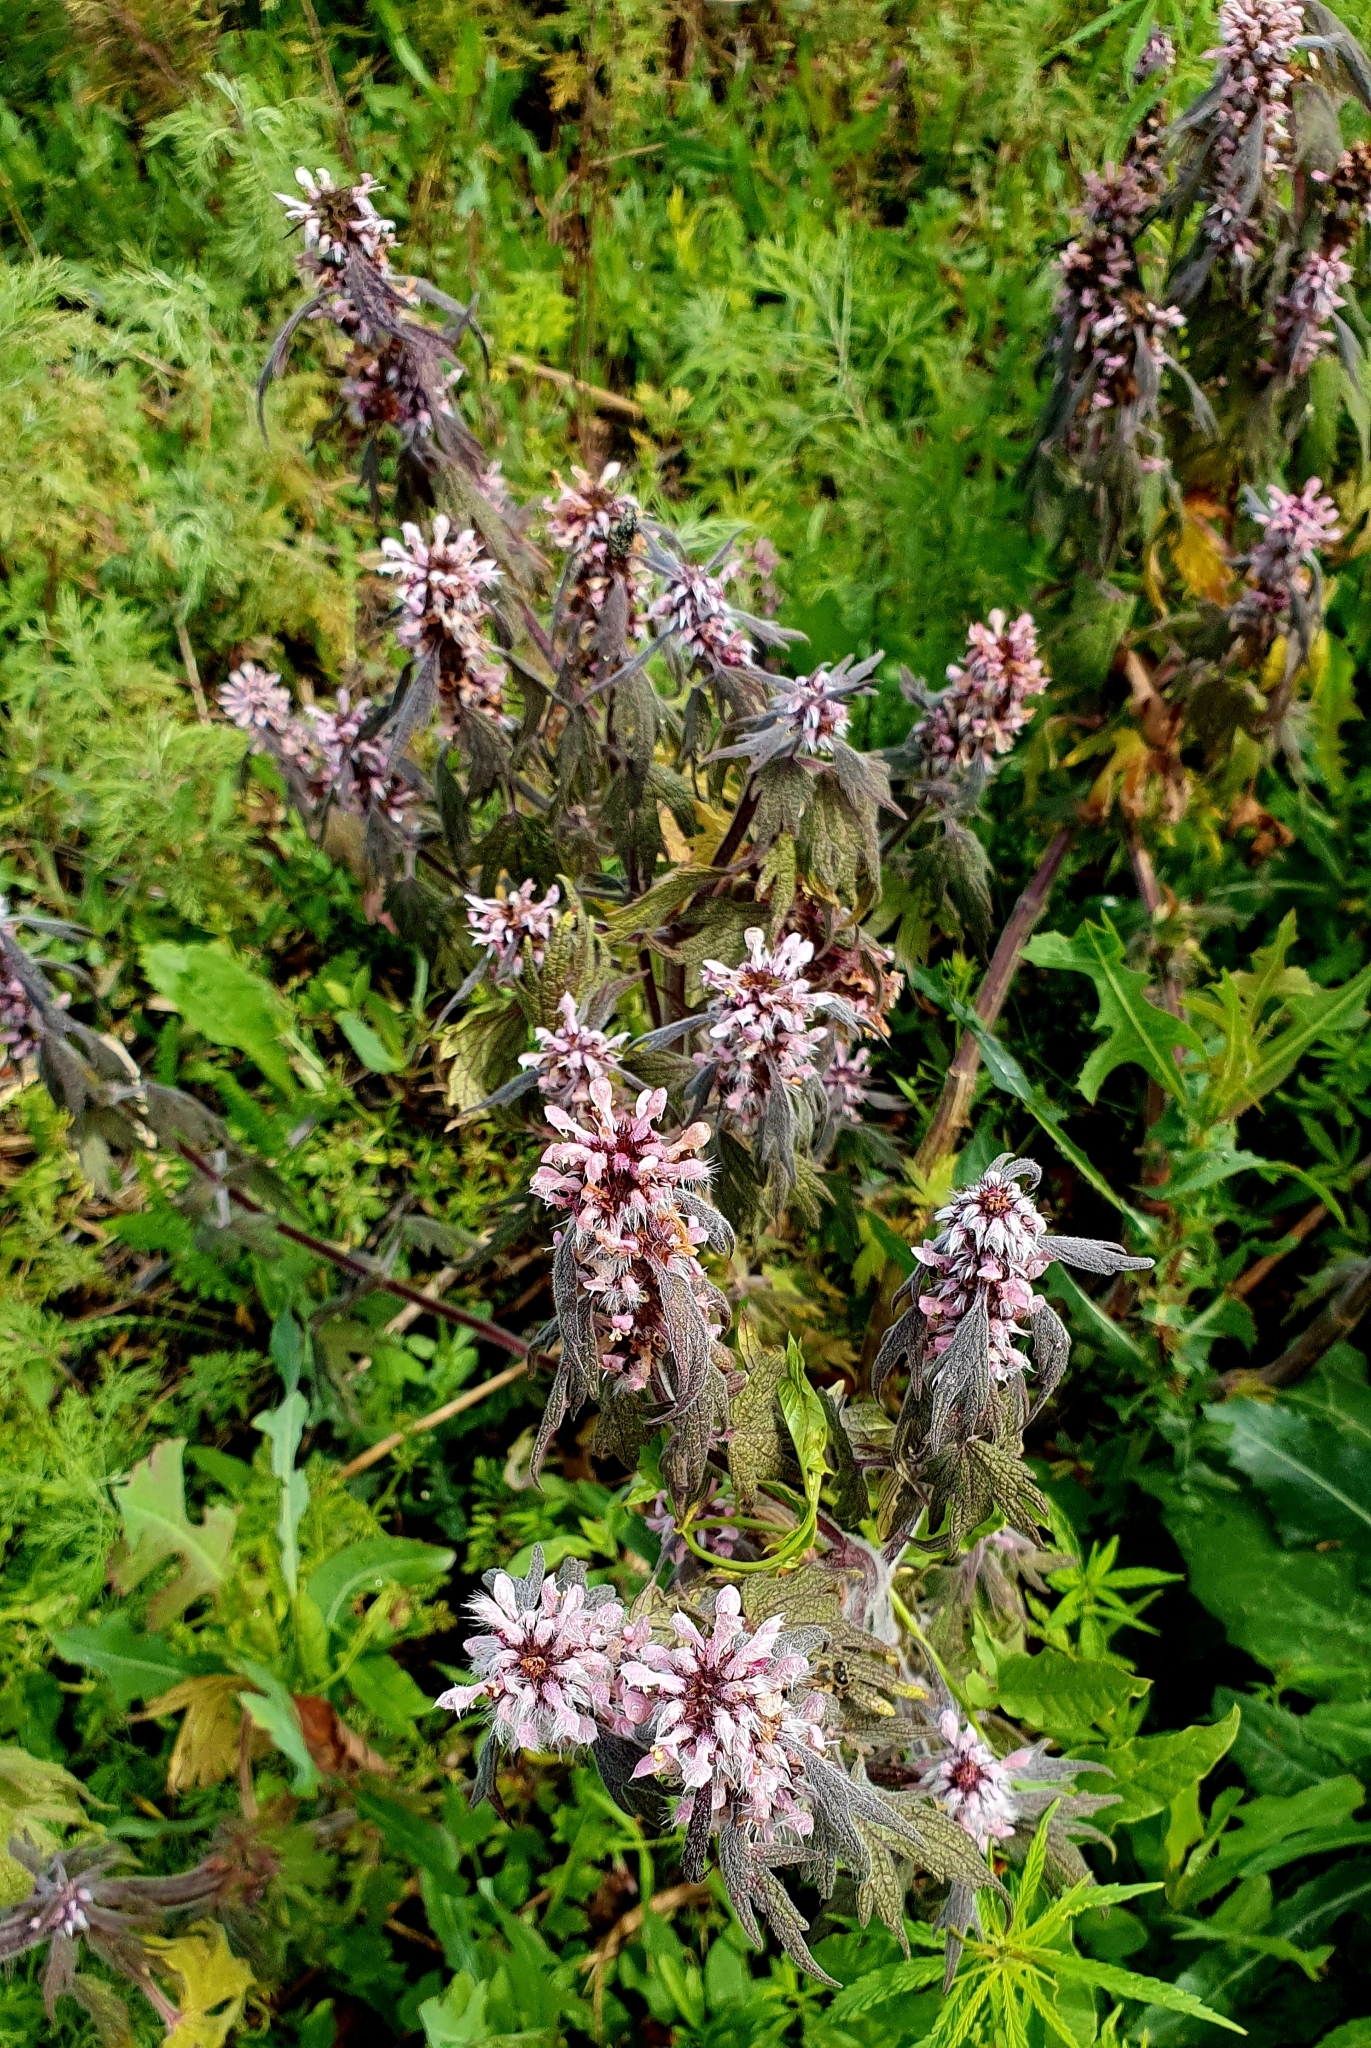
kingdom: Plantae
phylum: Tracheophyta
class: Magnoliopsida
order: Lamiales
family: Lamiaceae
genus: Leonurus
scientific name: Leonurus quinquelobatus
